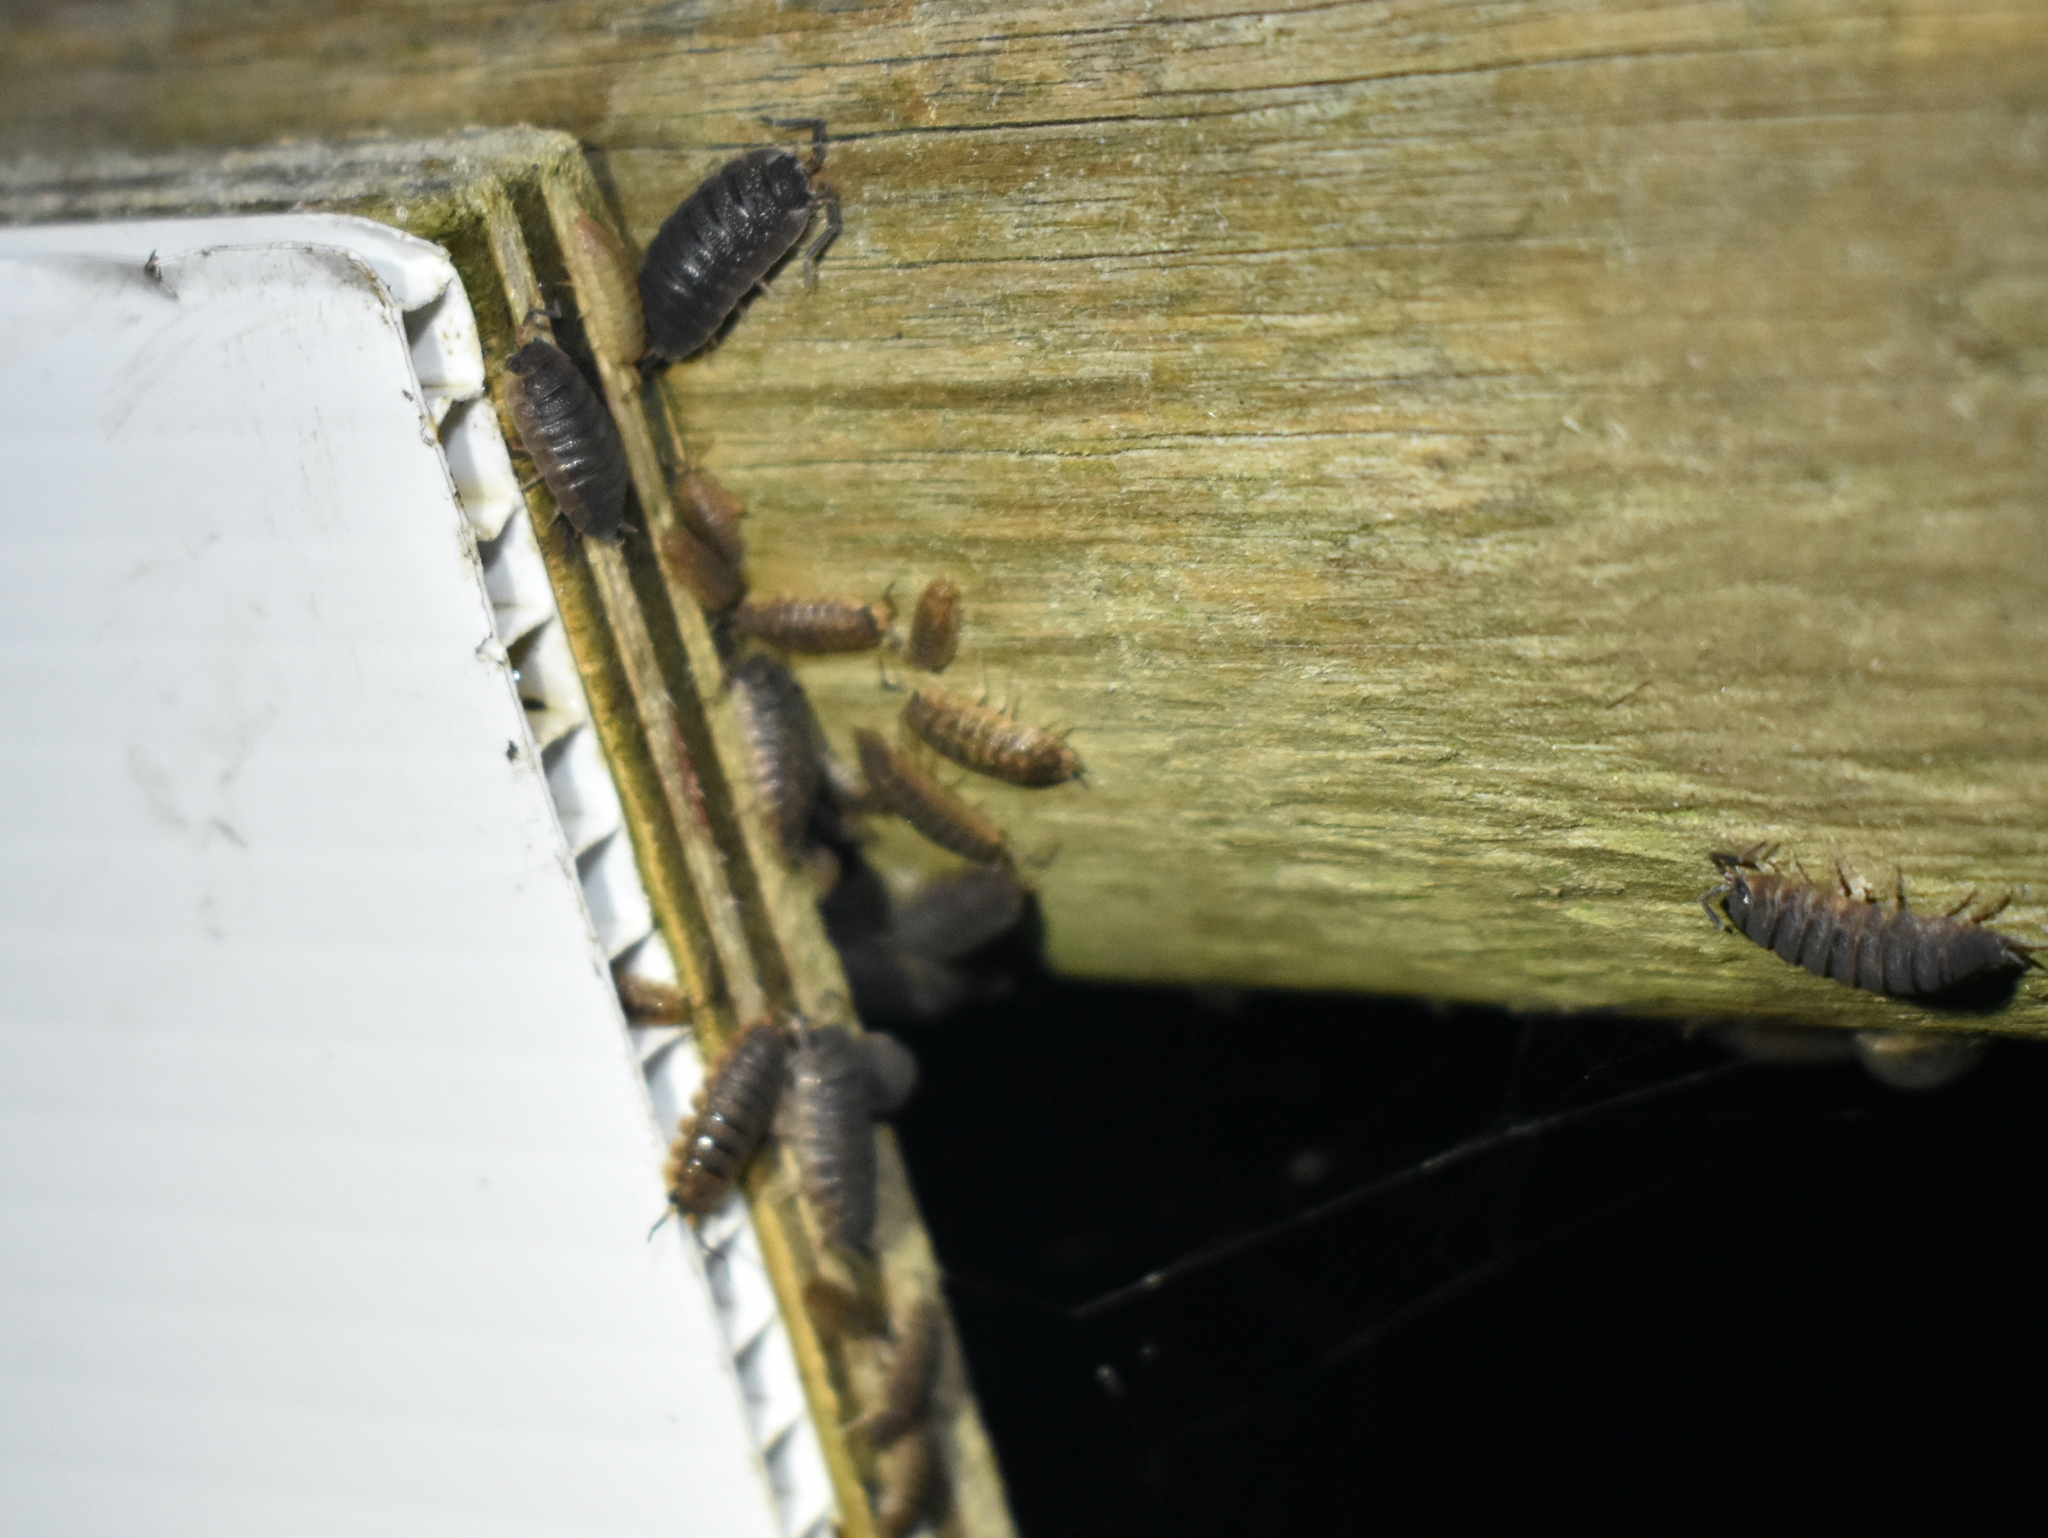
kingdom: Animalia
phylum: Arthropoda
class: Malacostraca
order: Isopoda
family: Porcellionidae
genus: Porcellio
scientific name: Porcellio scaber
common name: Common rough woodlouse
